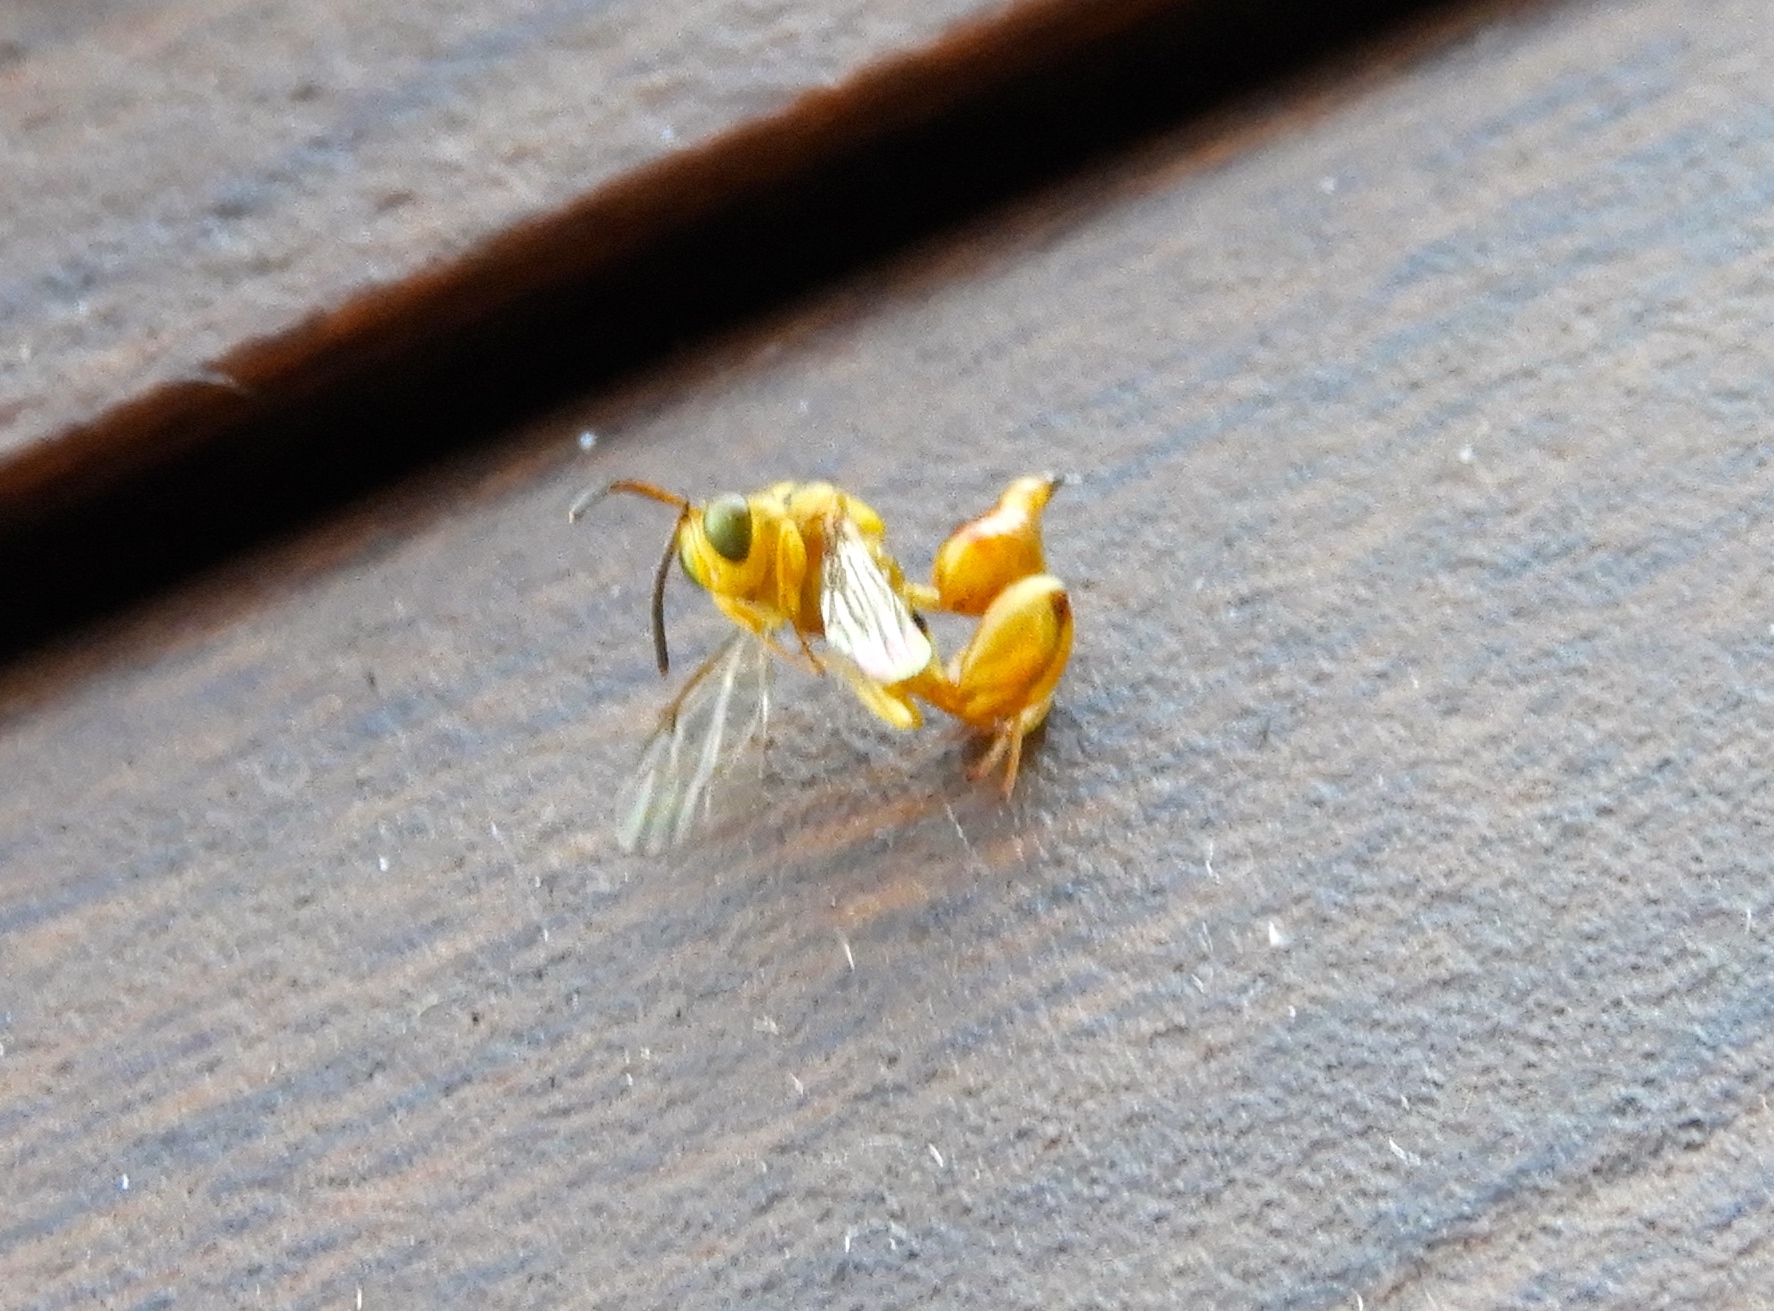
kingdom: Animalia
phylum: Arthropoda
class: Insecta
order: Hymenoptera
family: Chalcididae
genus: Conura
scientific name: Conura
